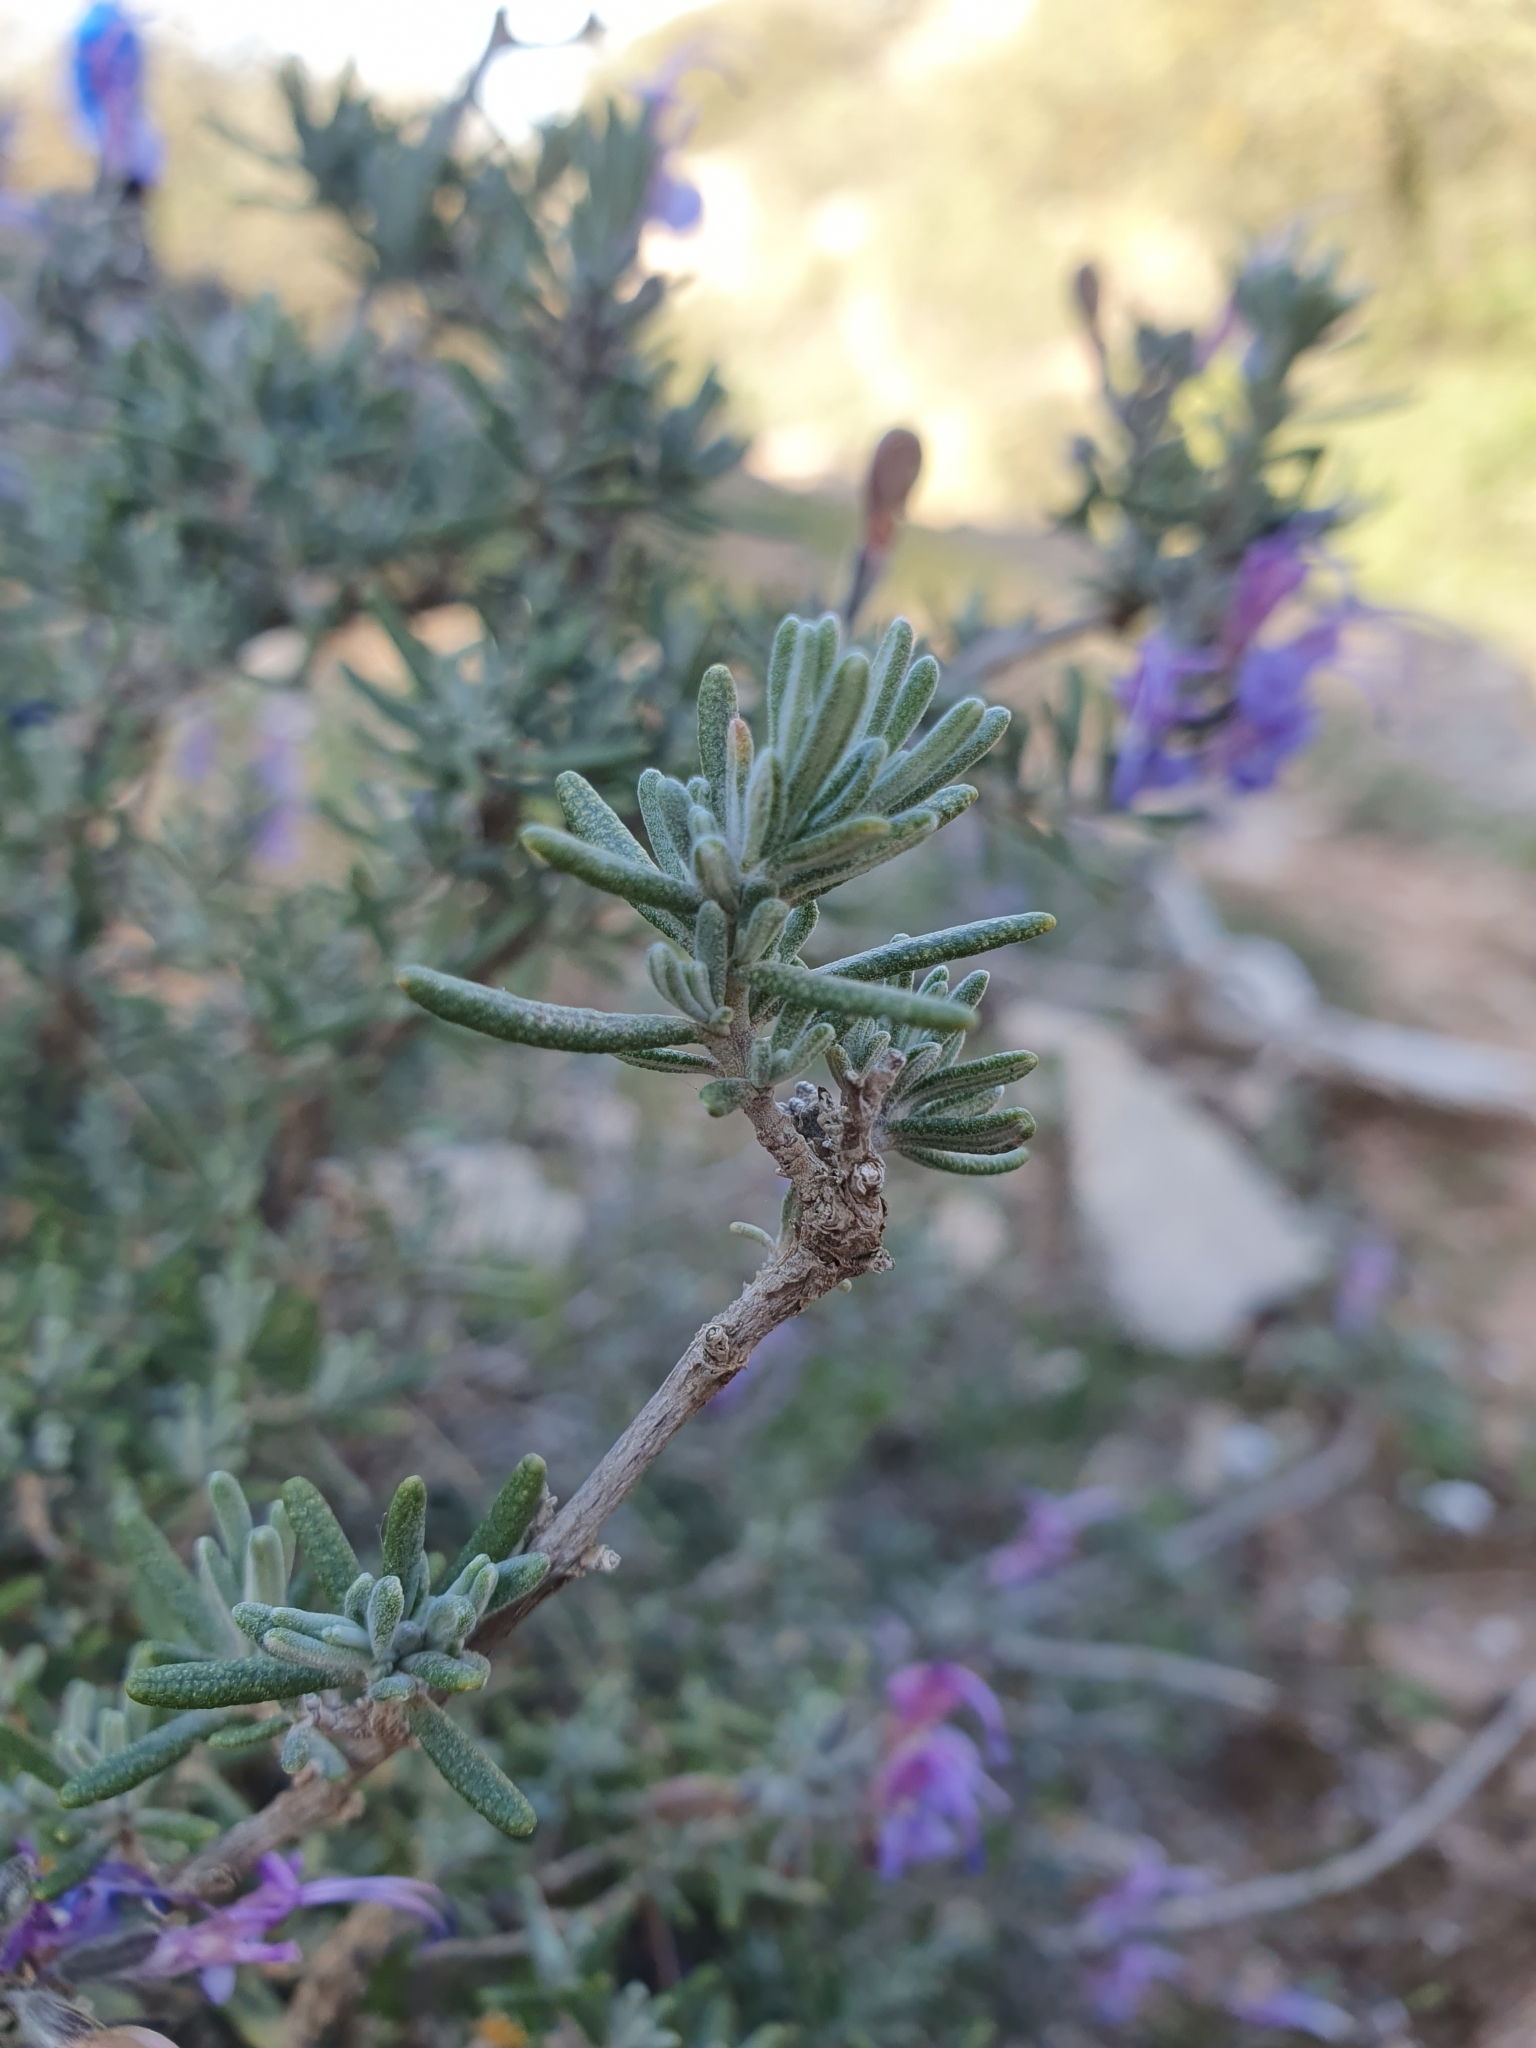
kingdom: Plantae
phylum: Tracheophyta
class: Magnoliopsida
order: Lamiales
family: Lamiaceae
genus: Salvia
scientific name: Salvia jordanii
